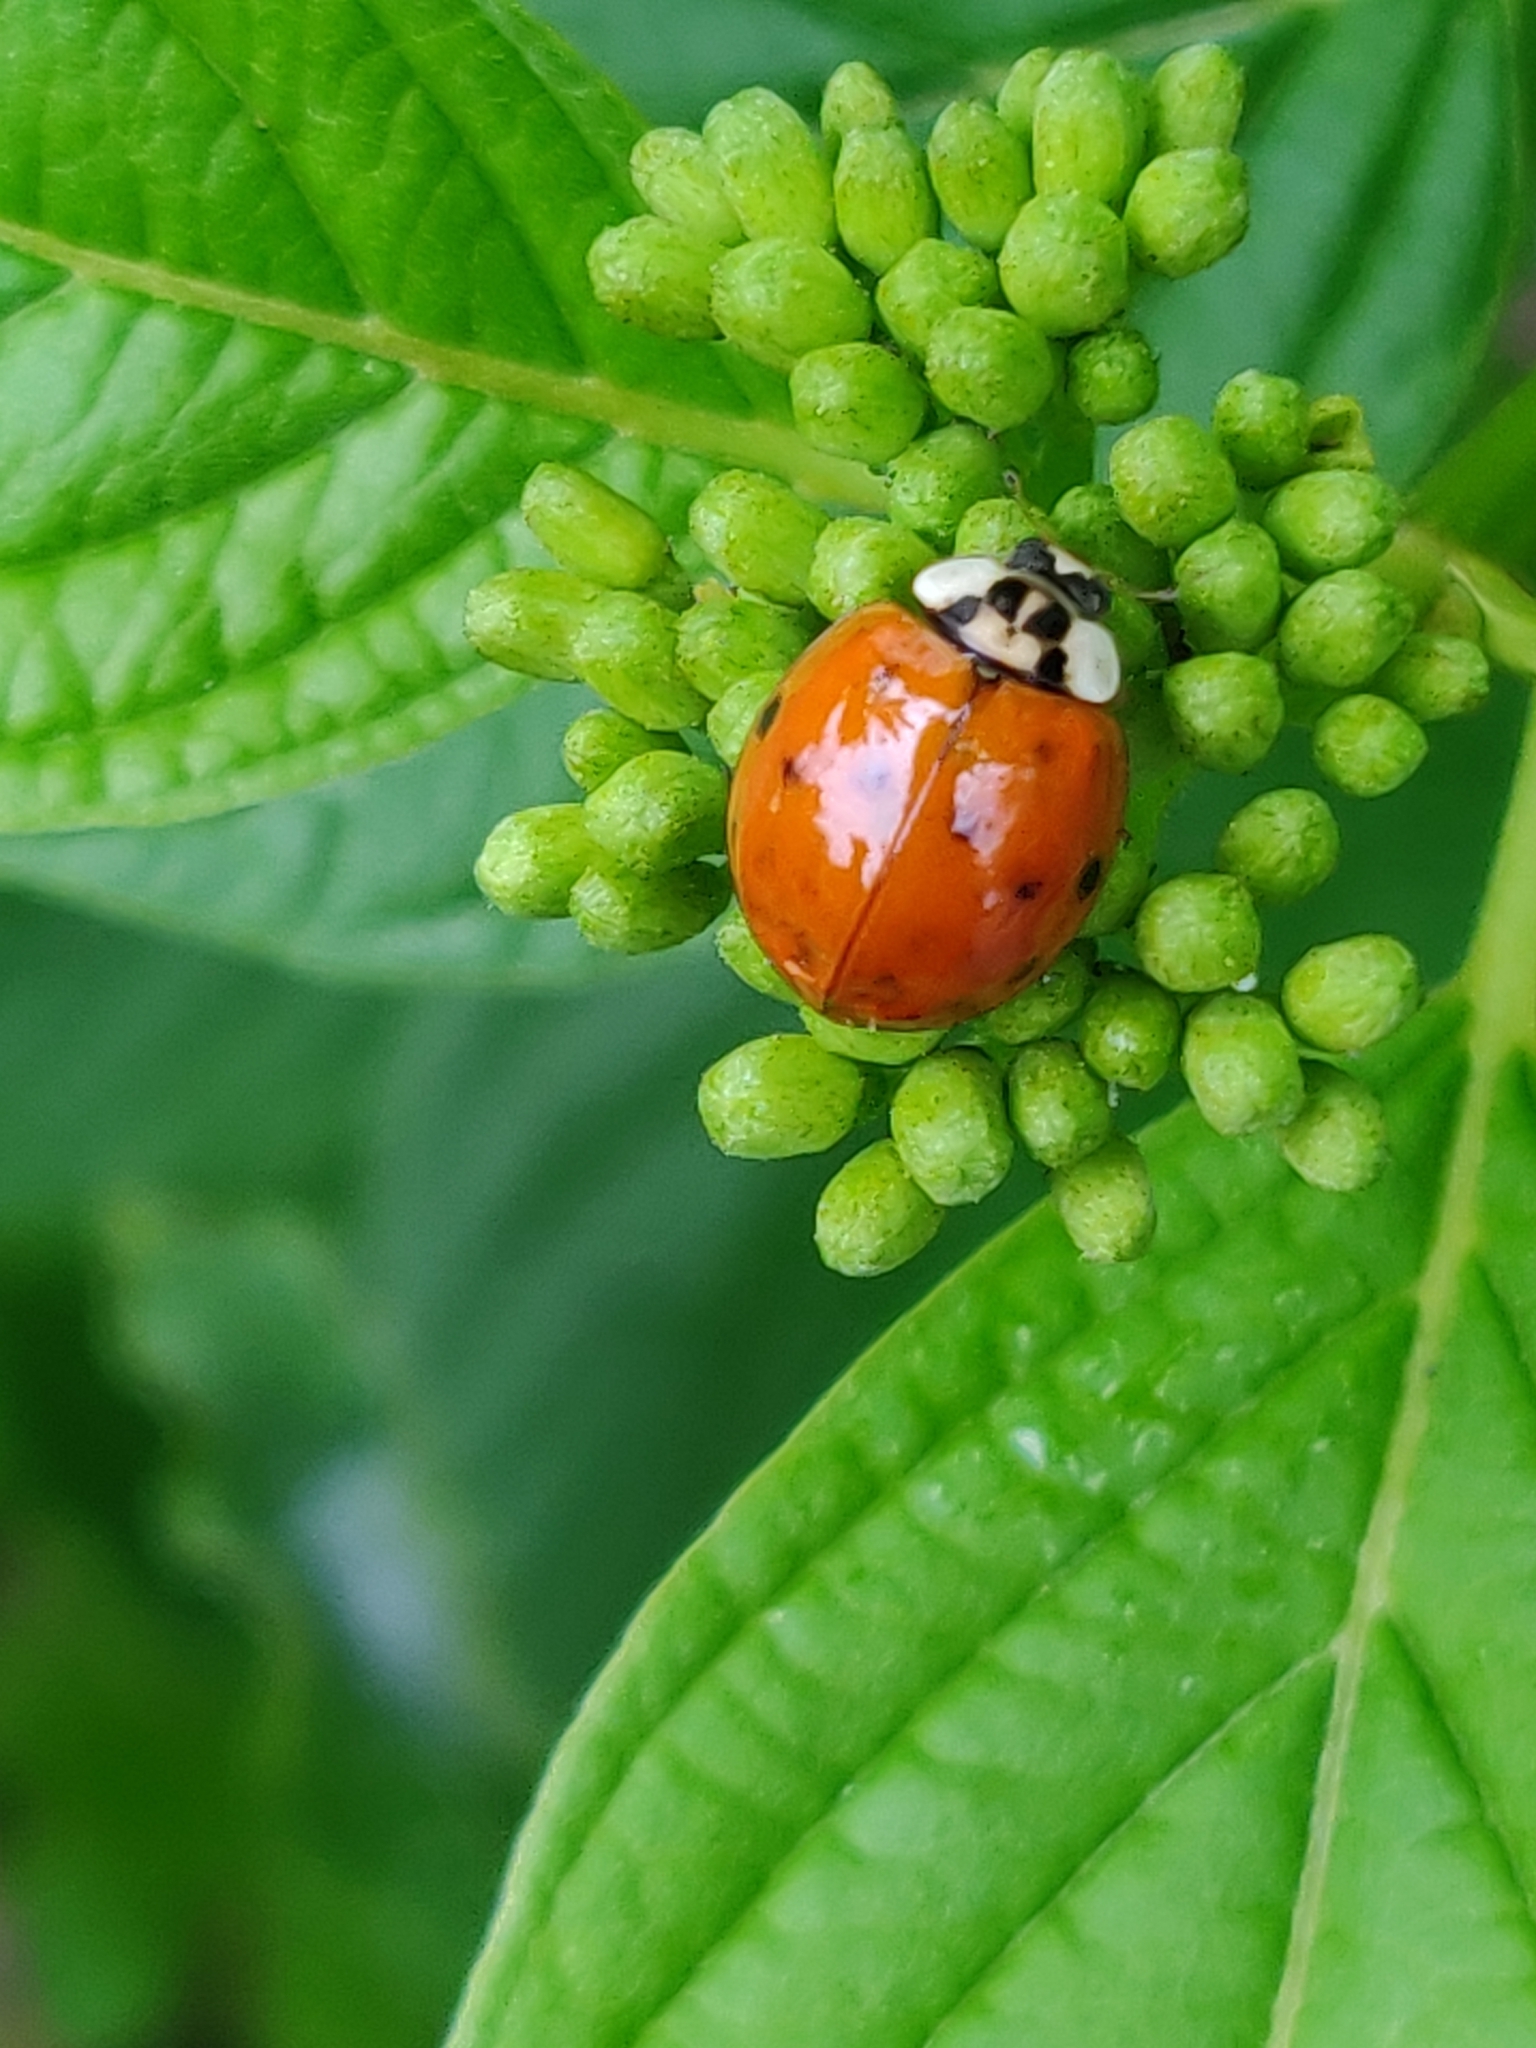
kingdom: Animalia
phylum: Arthropoda
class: Insecta
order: Coleoptera
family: Coccinellidae
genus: Harmonia
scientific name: Harmonia axyridis
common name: Harlequin ladybird
